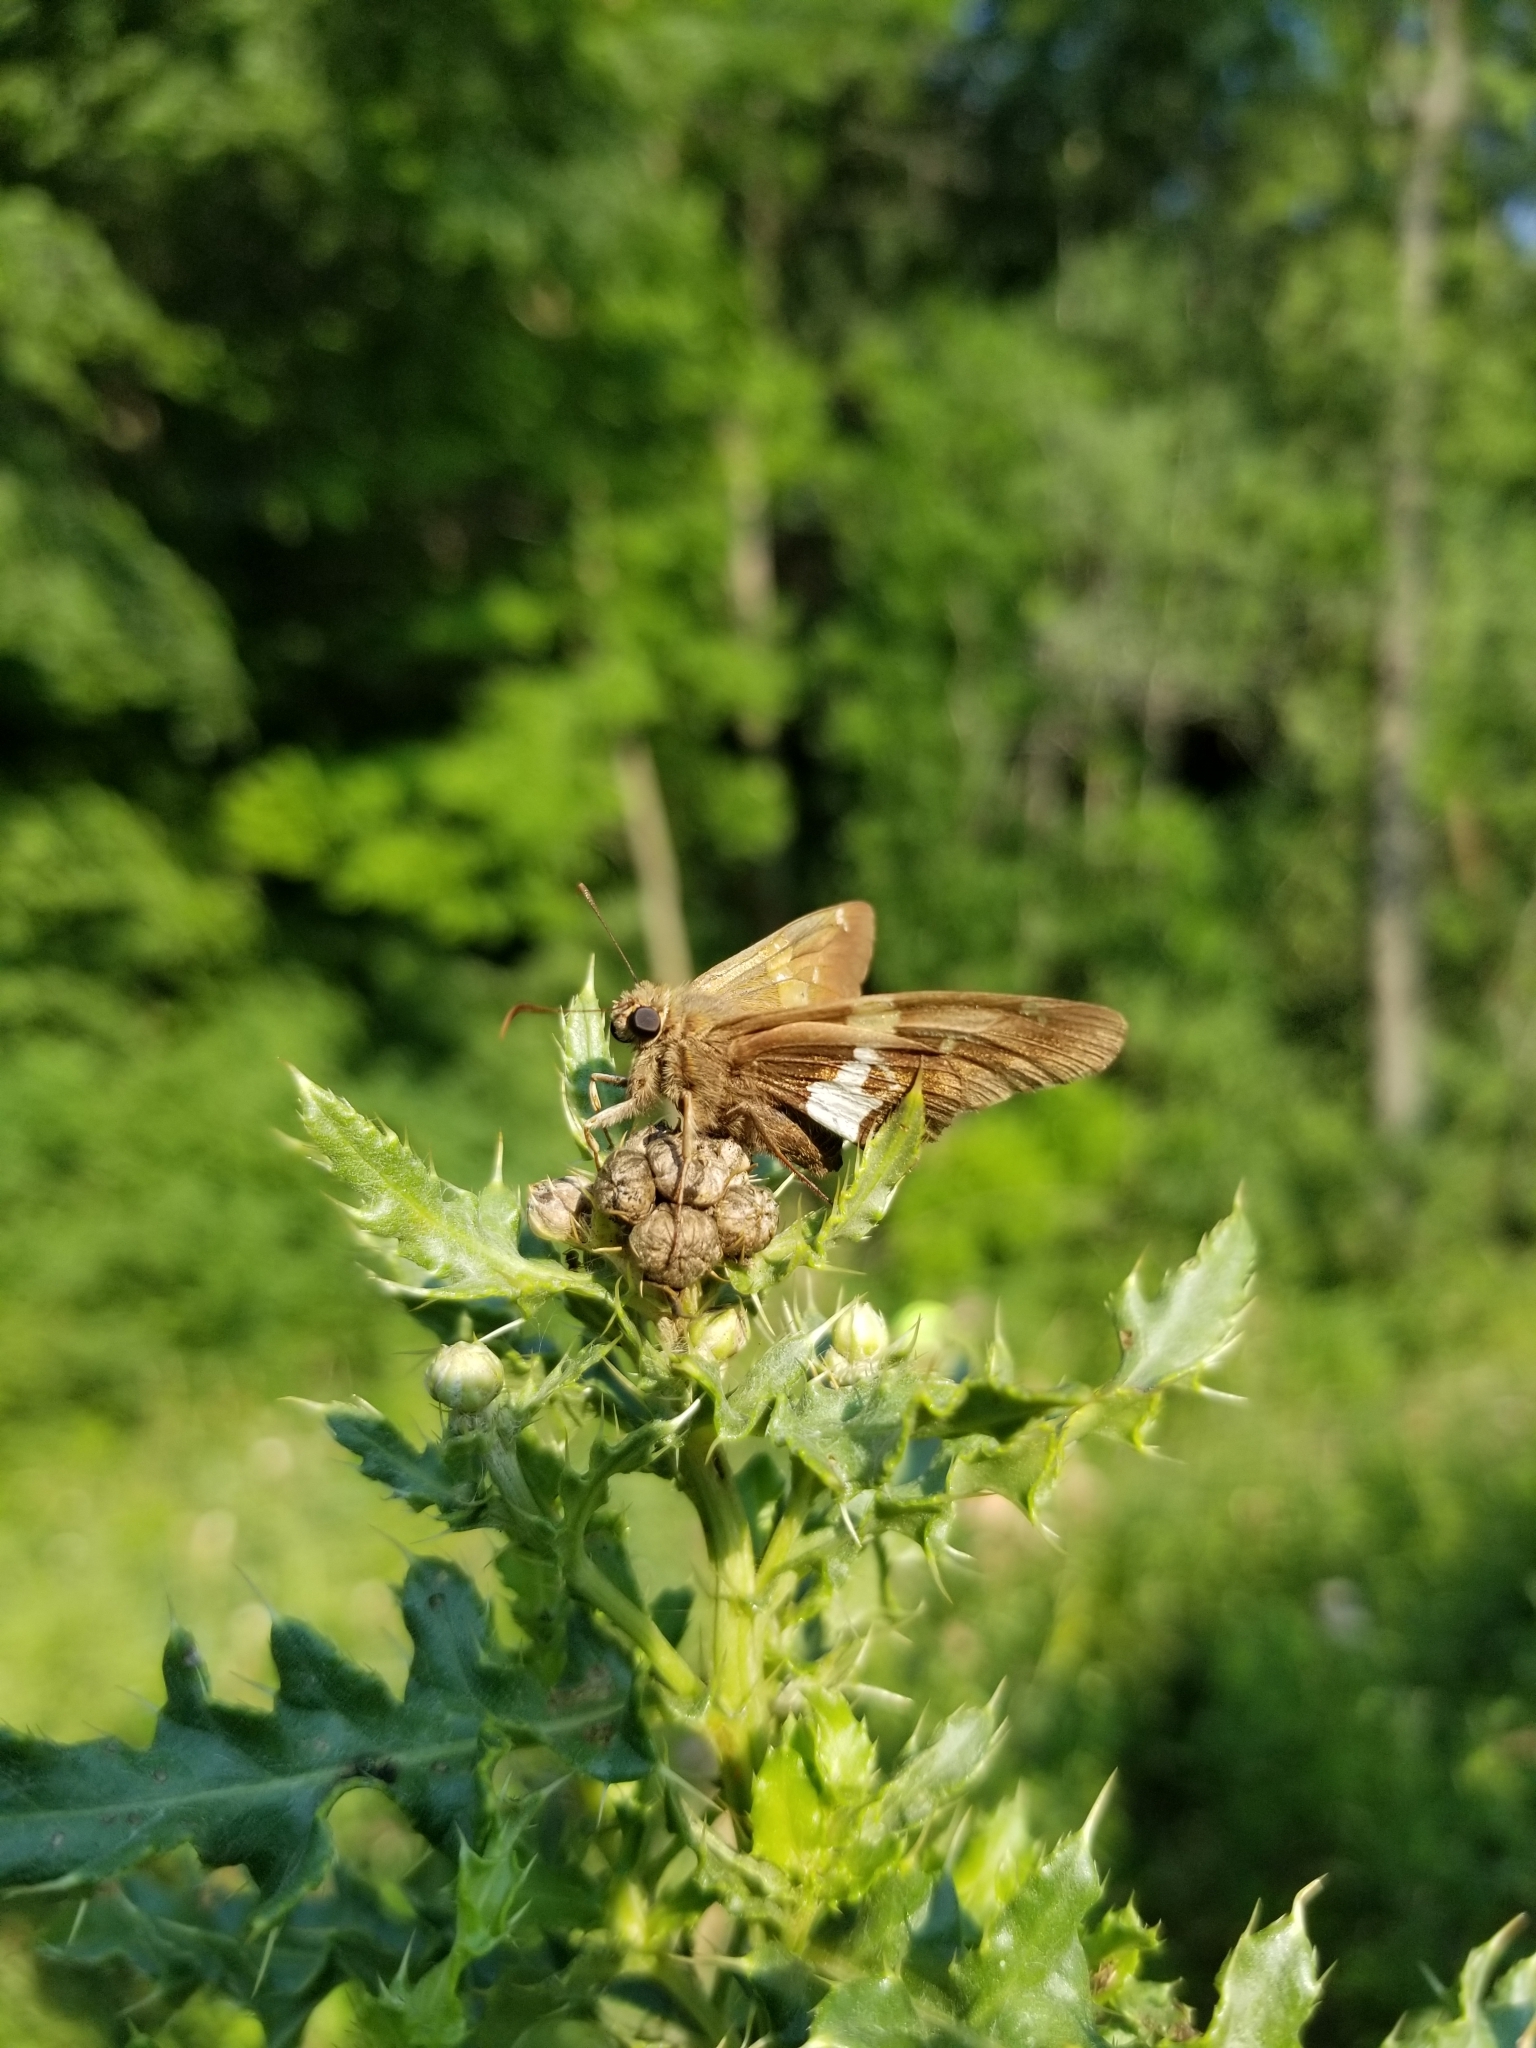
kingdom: Animalia
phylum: Arthropoda
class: Insecta
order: Lepidoptera
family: Hesperiidae
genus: Epargyreus
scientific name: Epargyreus clarus
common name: Silver-spotted skipper
